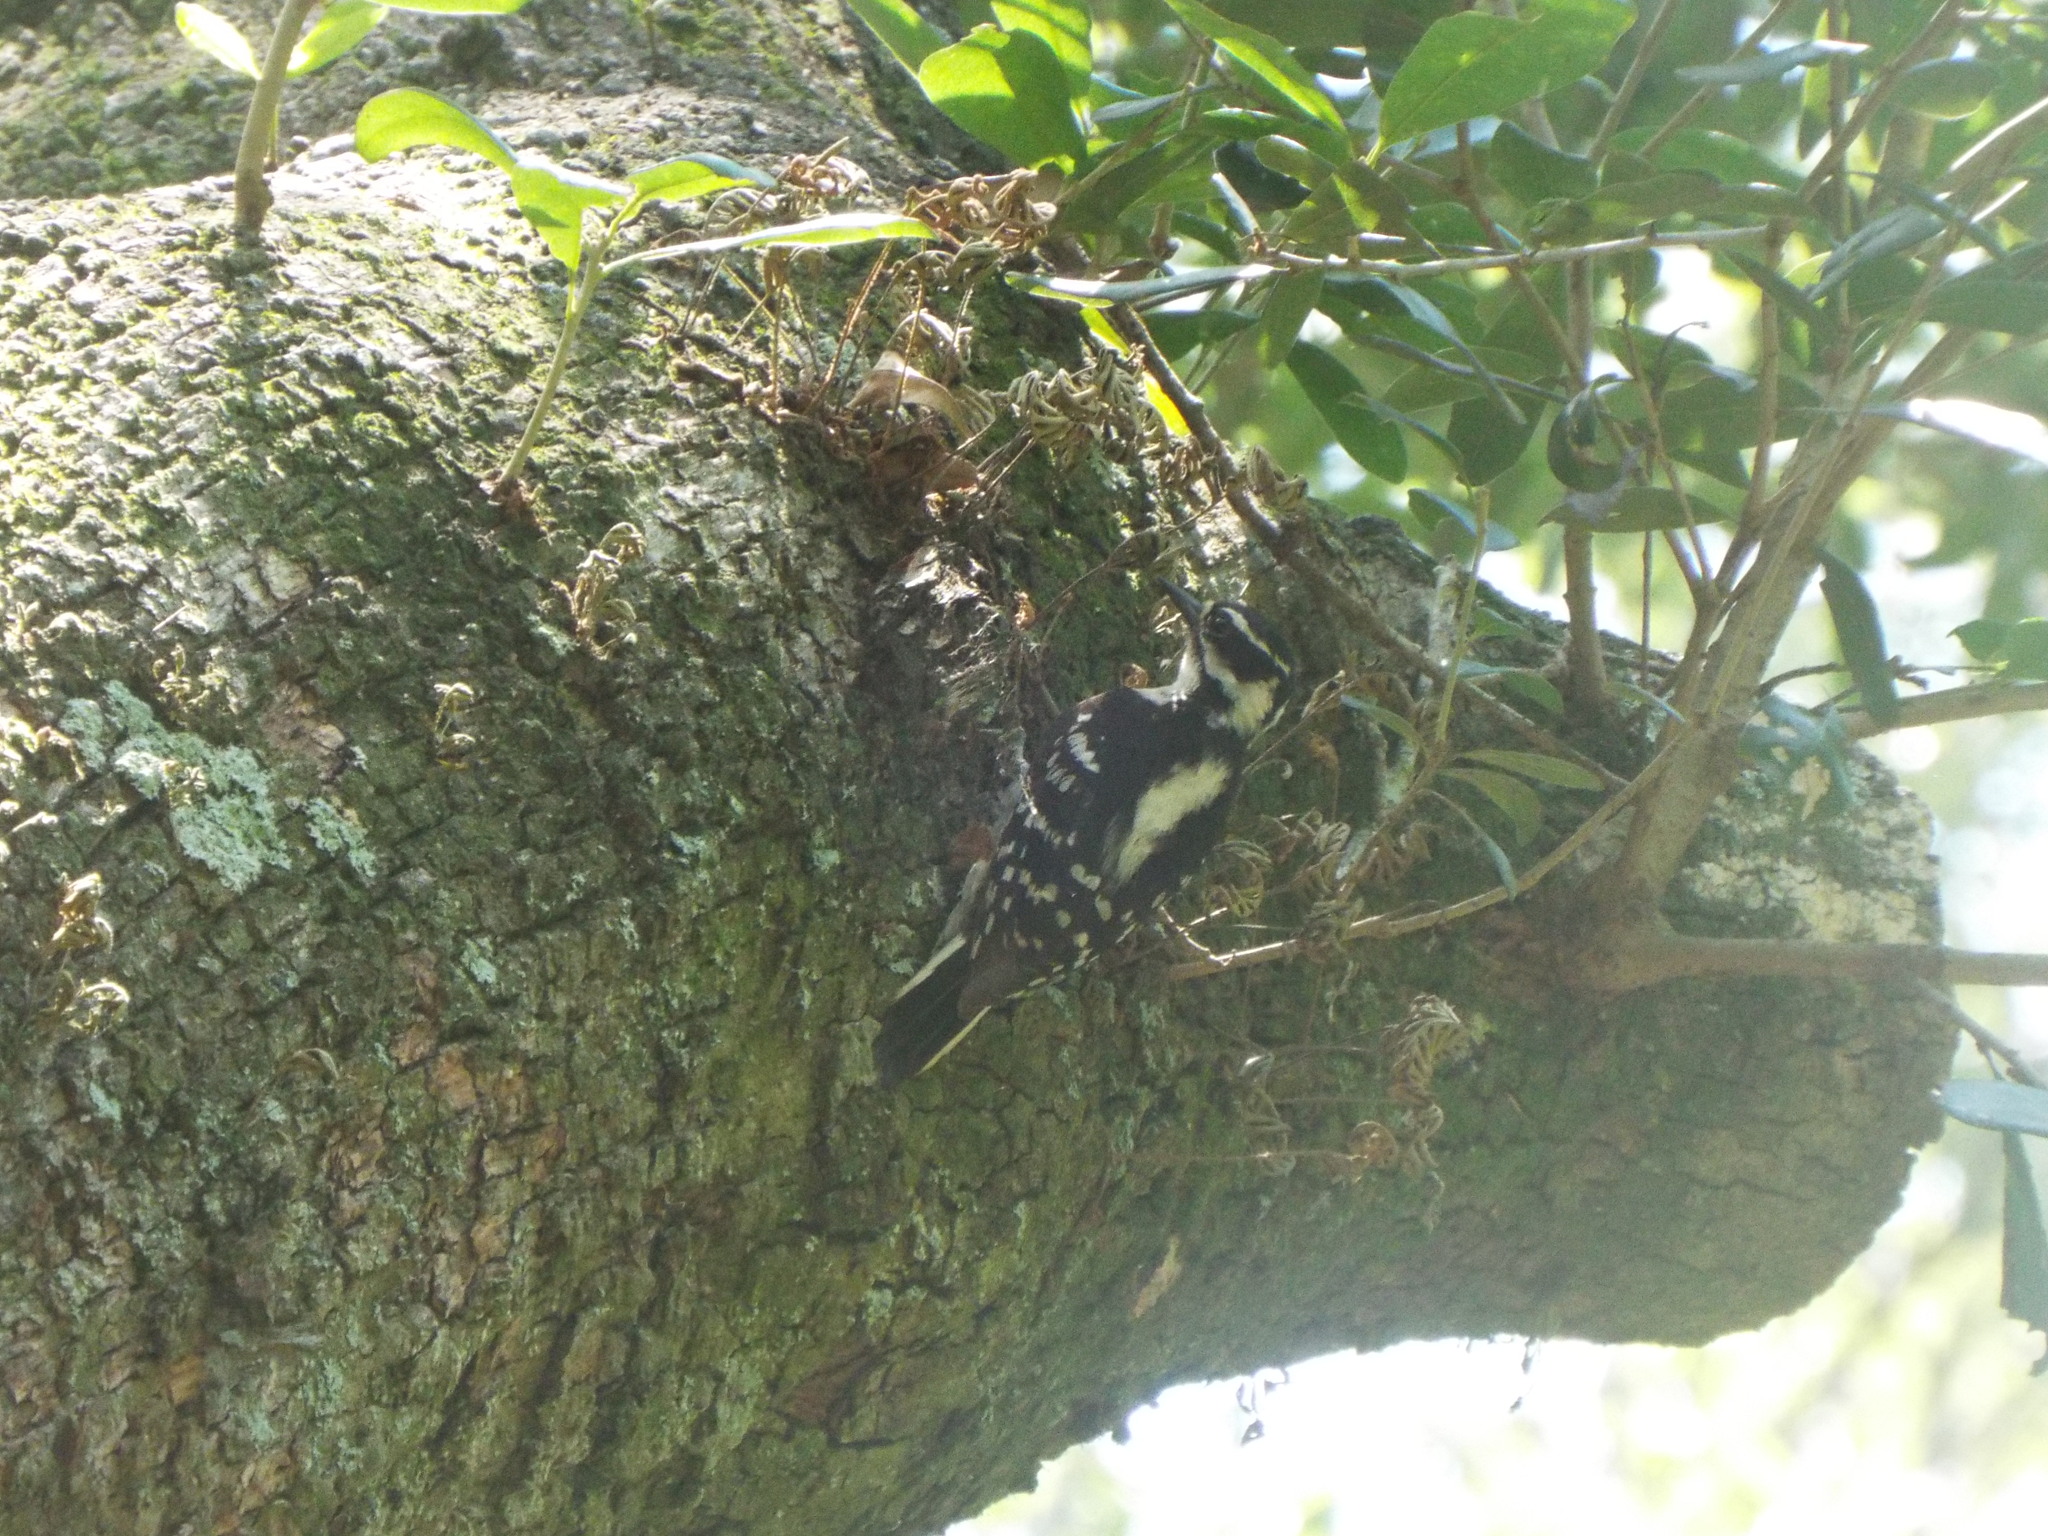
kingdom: Animalia
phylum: Chordata
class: Aves
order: Piciformes
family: Picidae
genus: Dryobates
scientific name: Dryobates pubescens
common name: Downy woodpecker
